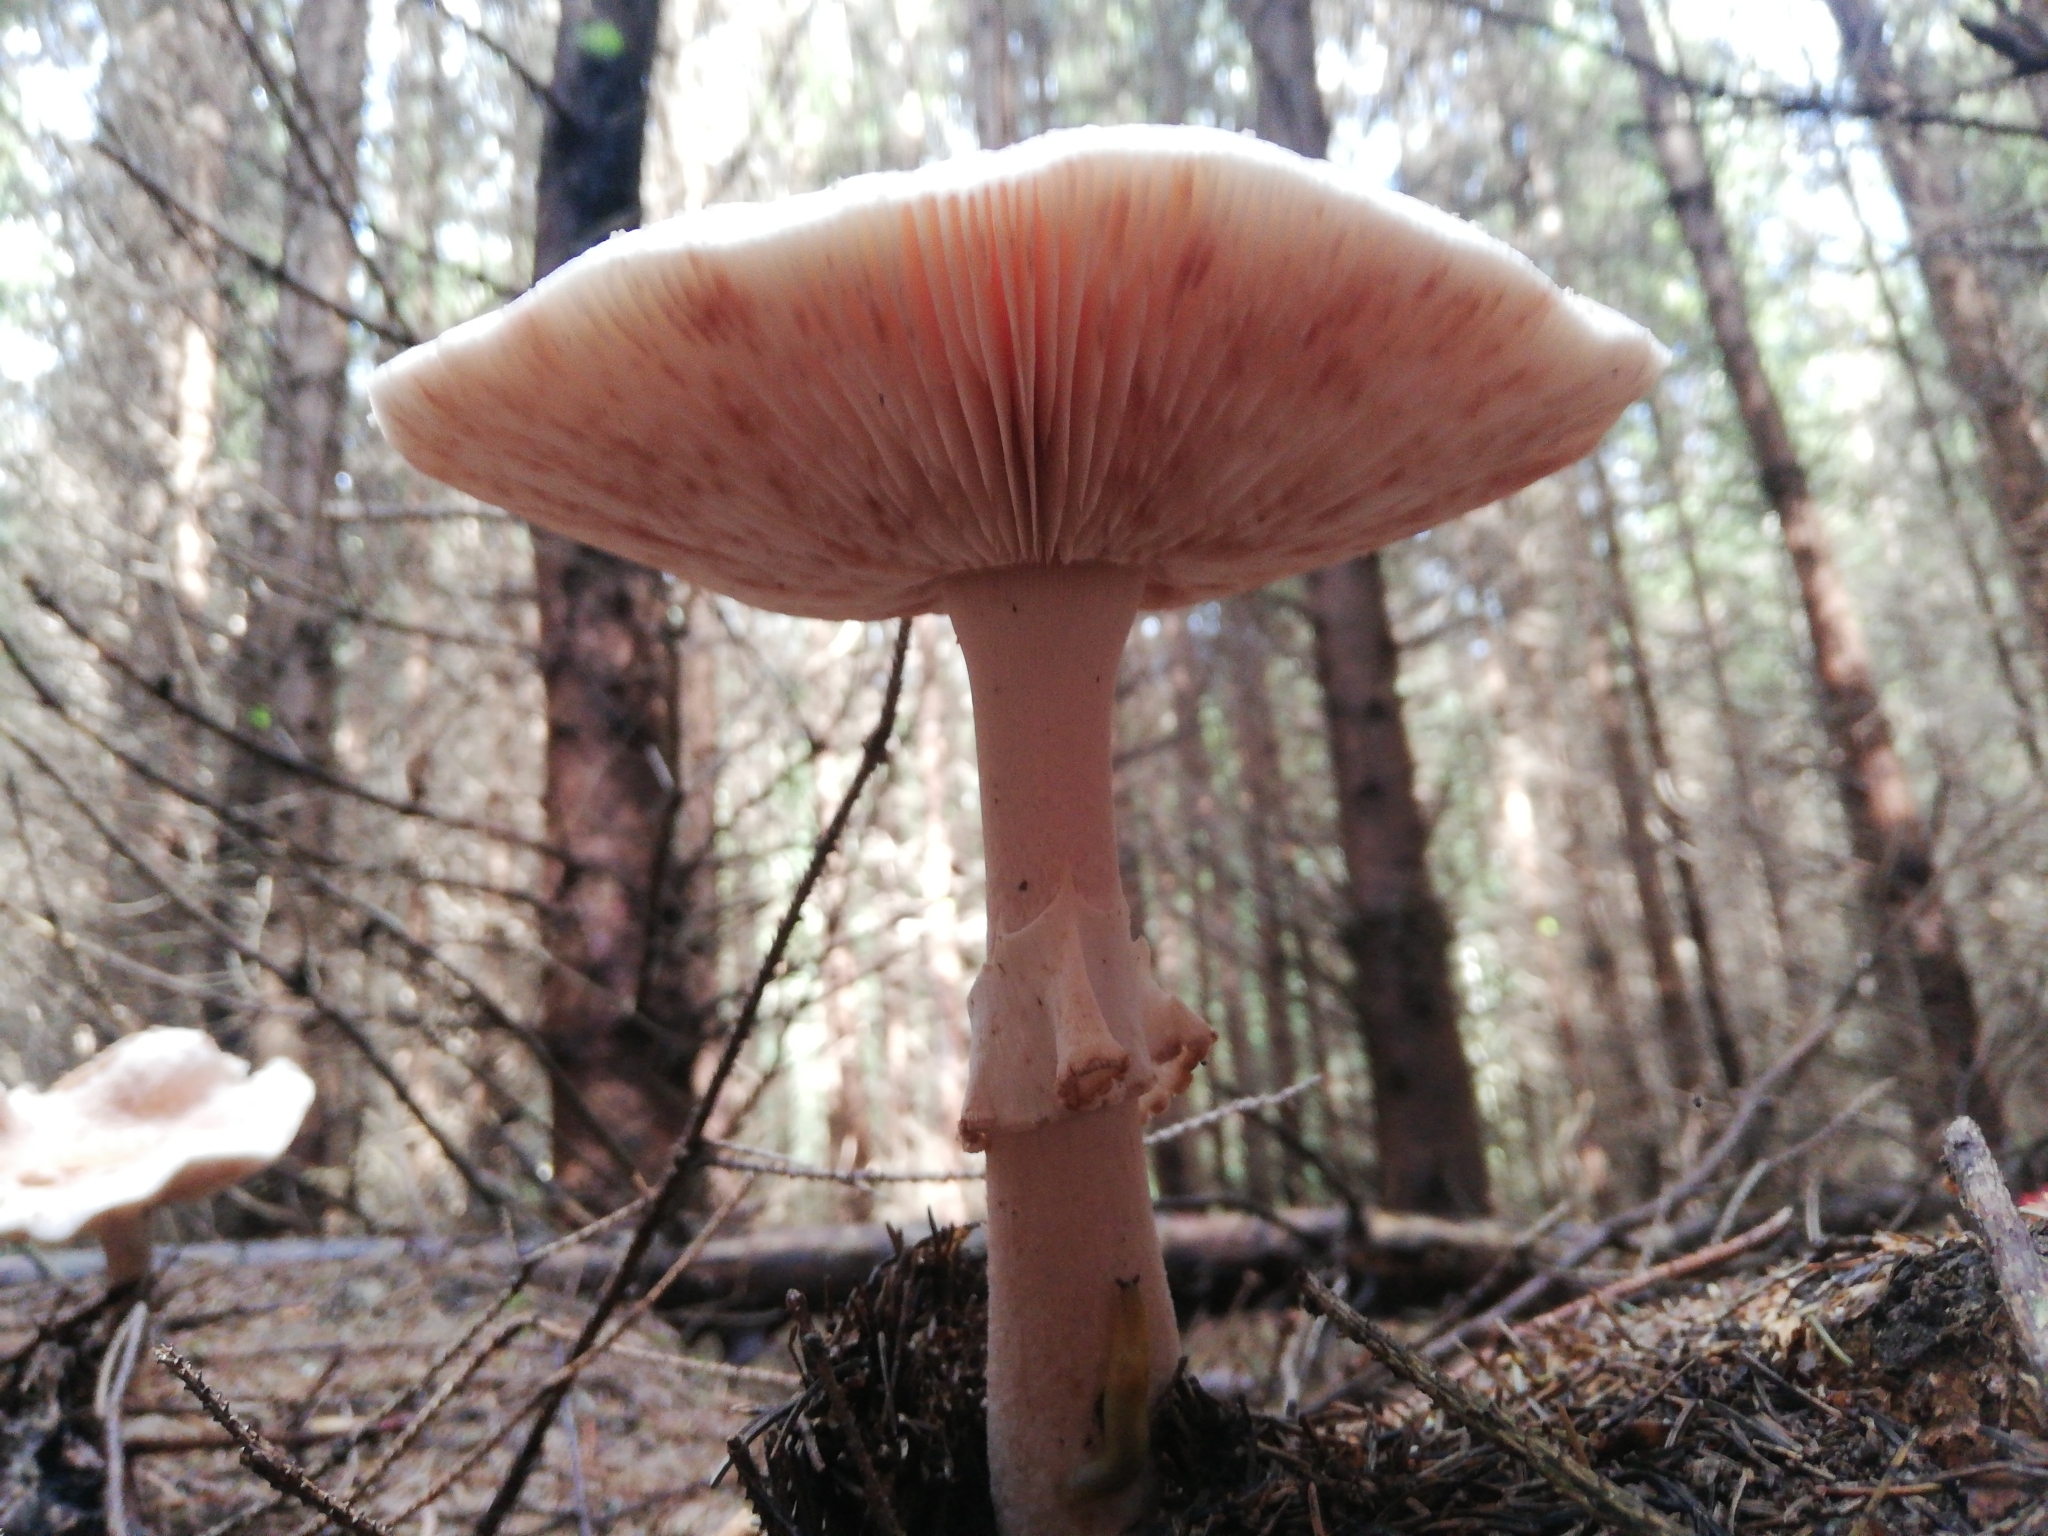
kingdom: Fungi
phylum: Basidiomycota
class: Agaricomycetes
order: Agaricales
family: Amanitaceae
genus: Amanita
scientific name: Amanita rubescens
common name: Blusher
